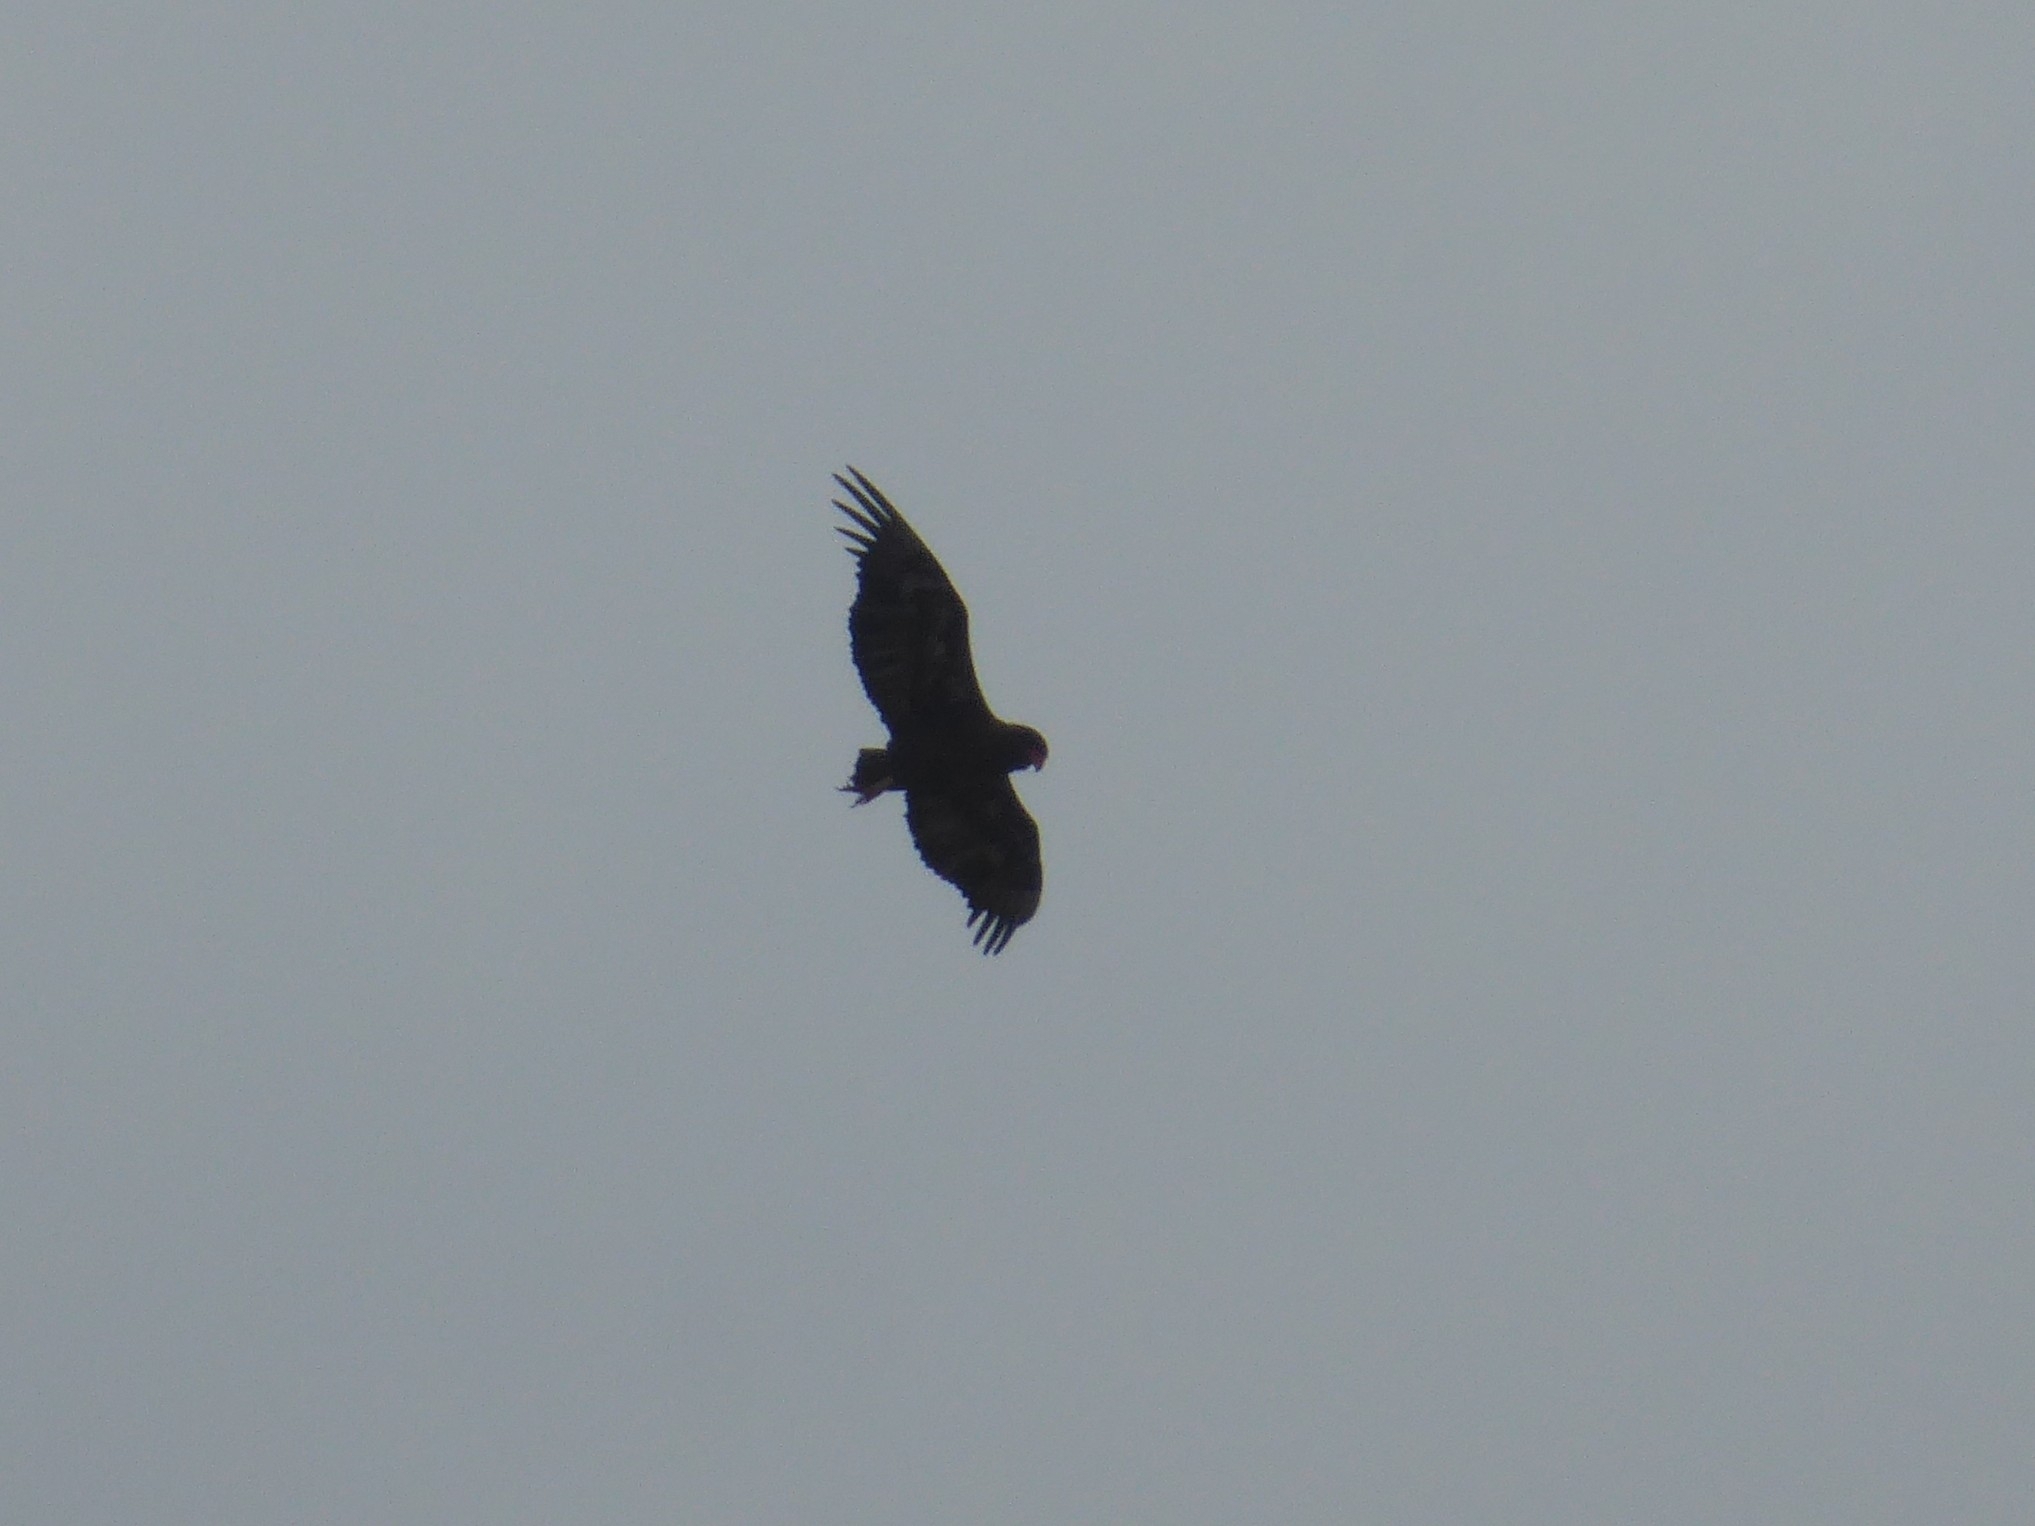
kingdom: Animalia
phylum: Chordata
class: Aves
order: Accipitriformes
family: Accipitridae
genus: Terathopius
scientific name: Terathopius ecaudatus
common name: Bateleur
